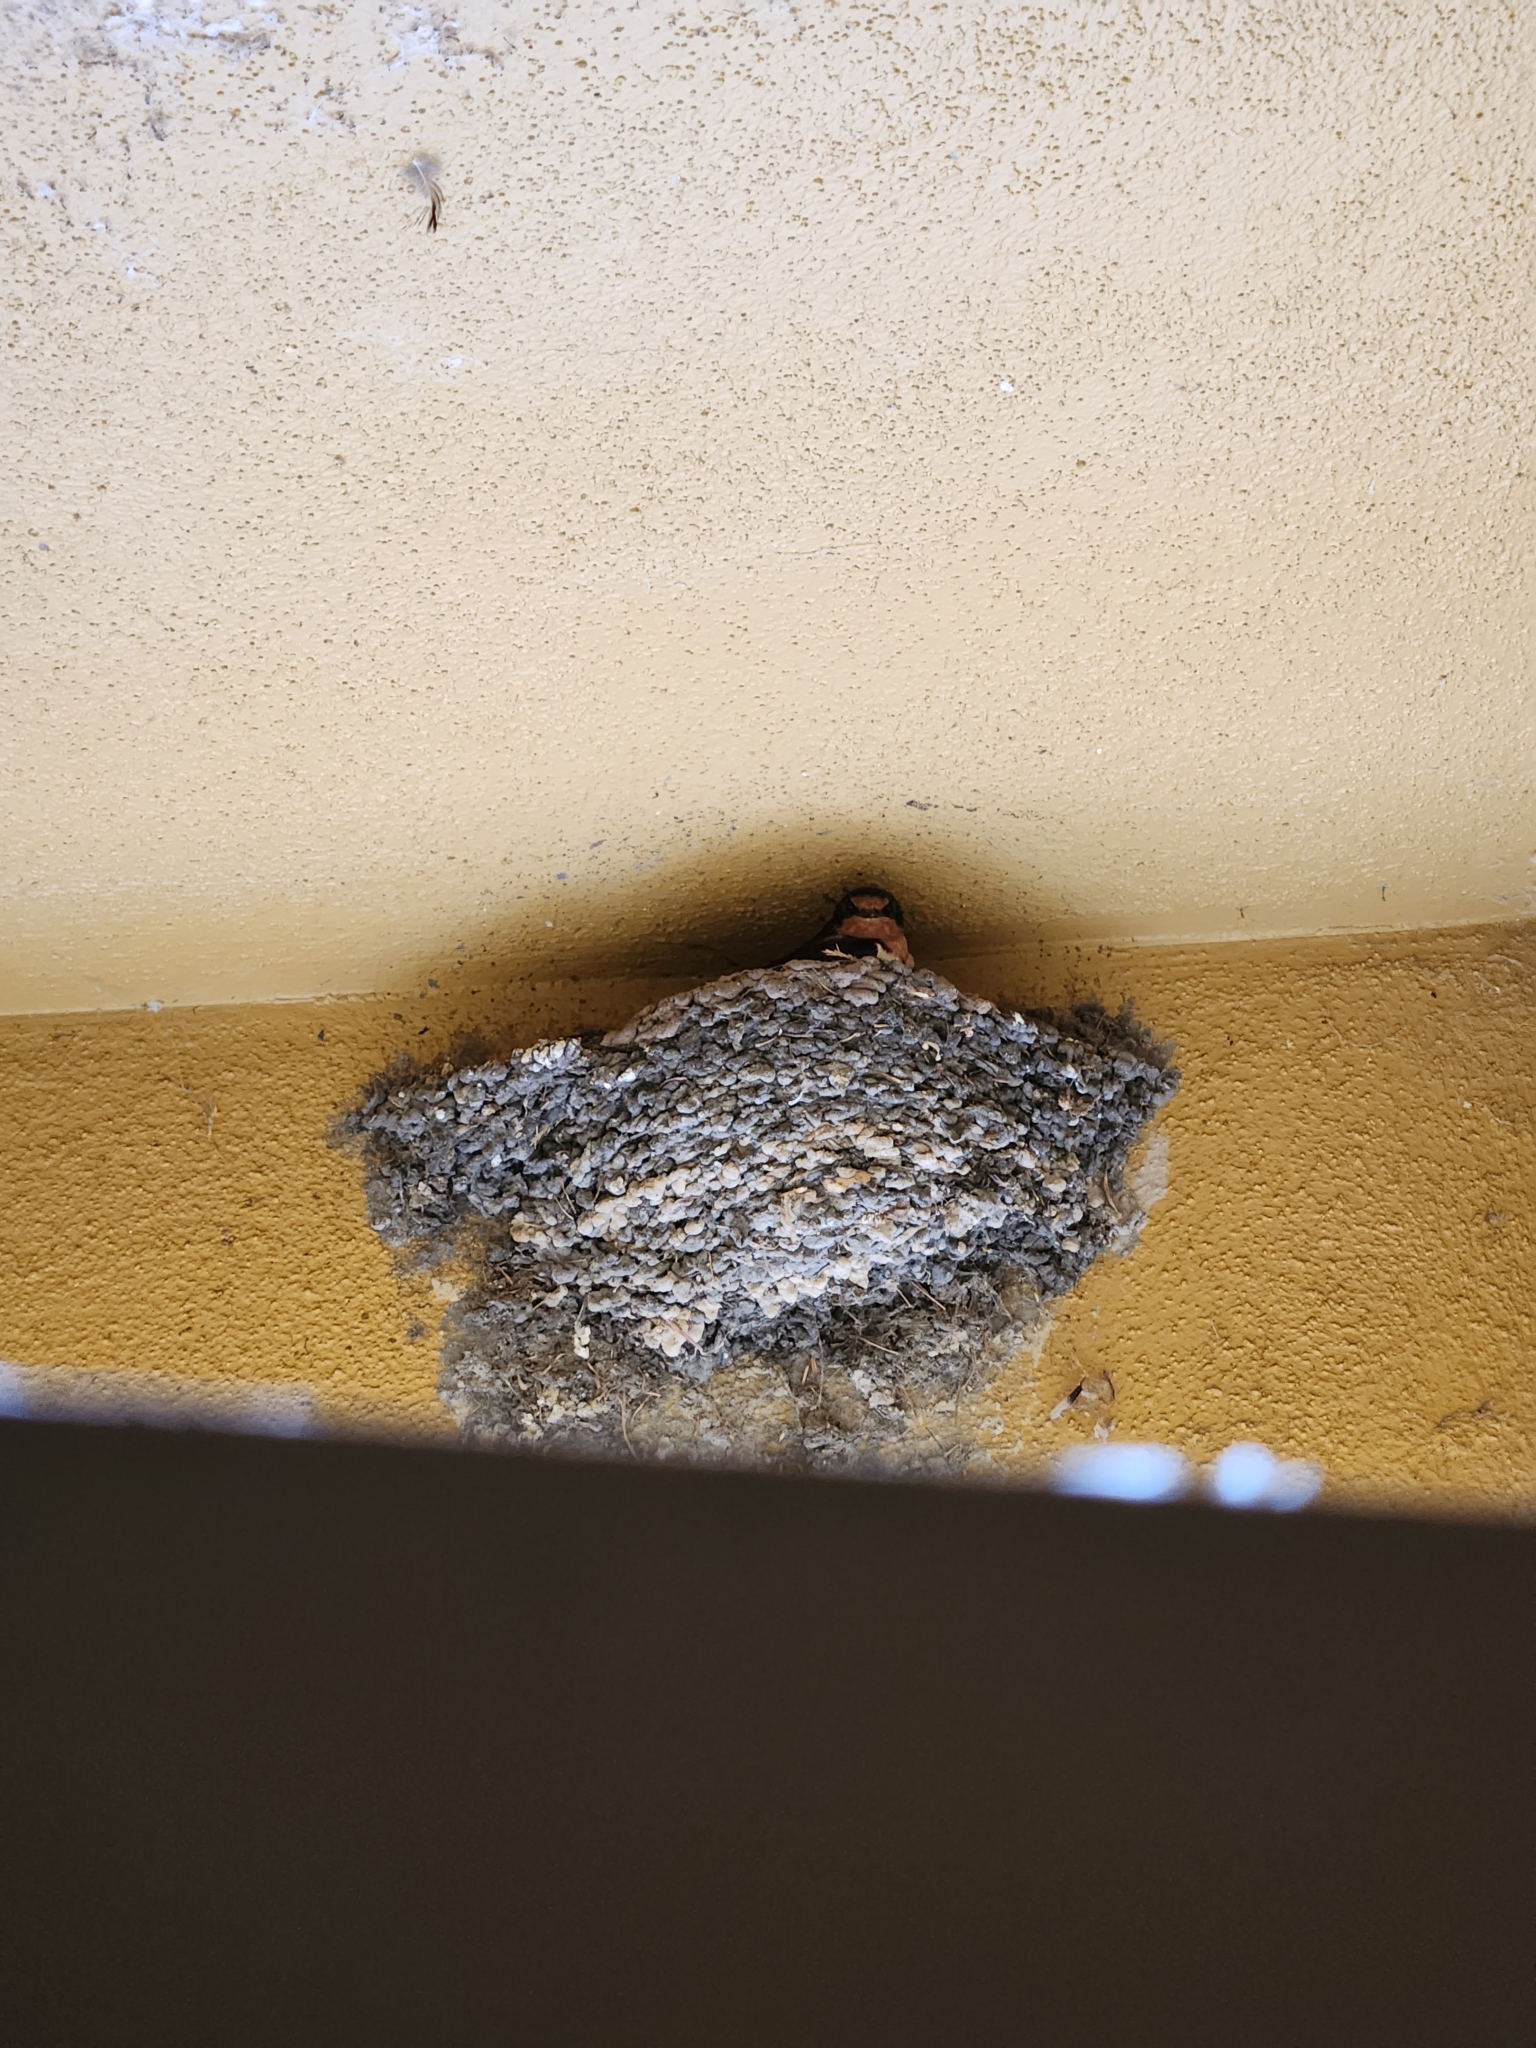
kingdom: Animalia
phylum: Chordata
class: Aves
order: Passeriformes
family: Hirundinidae
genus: Hirundo
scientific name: Hirundo rustica
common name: Barn swallow
